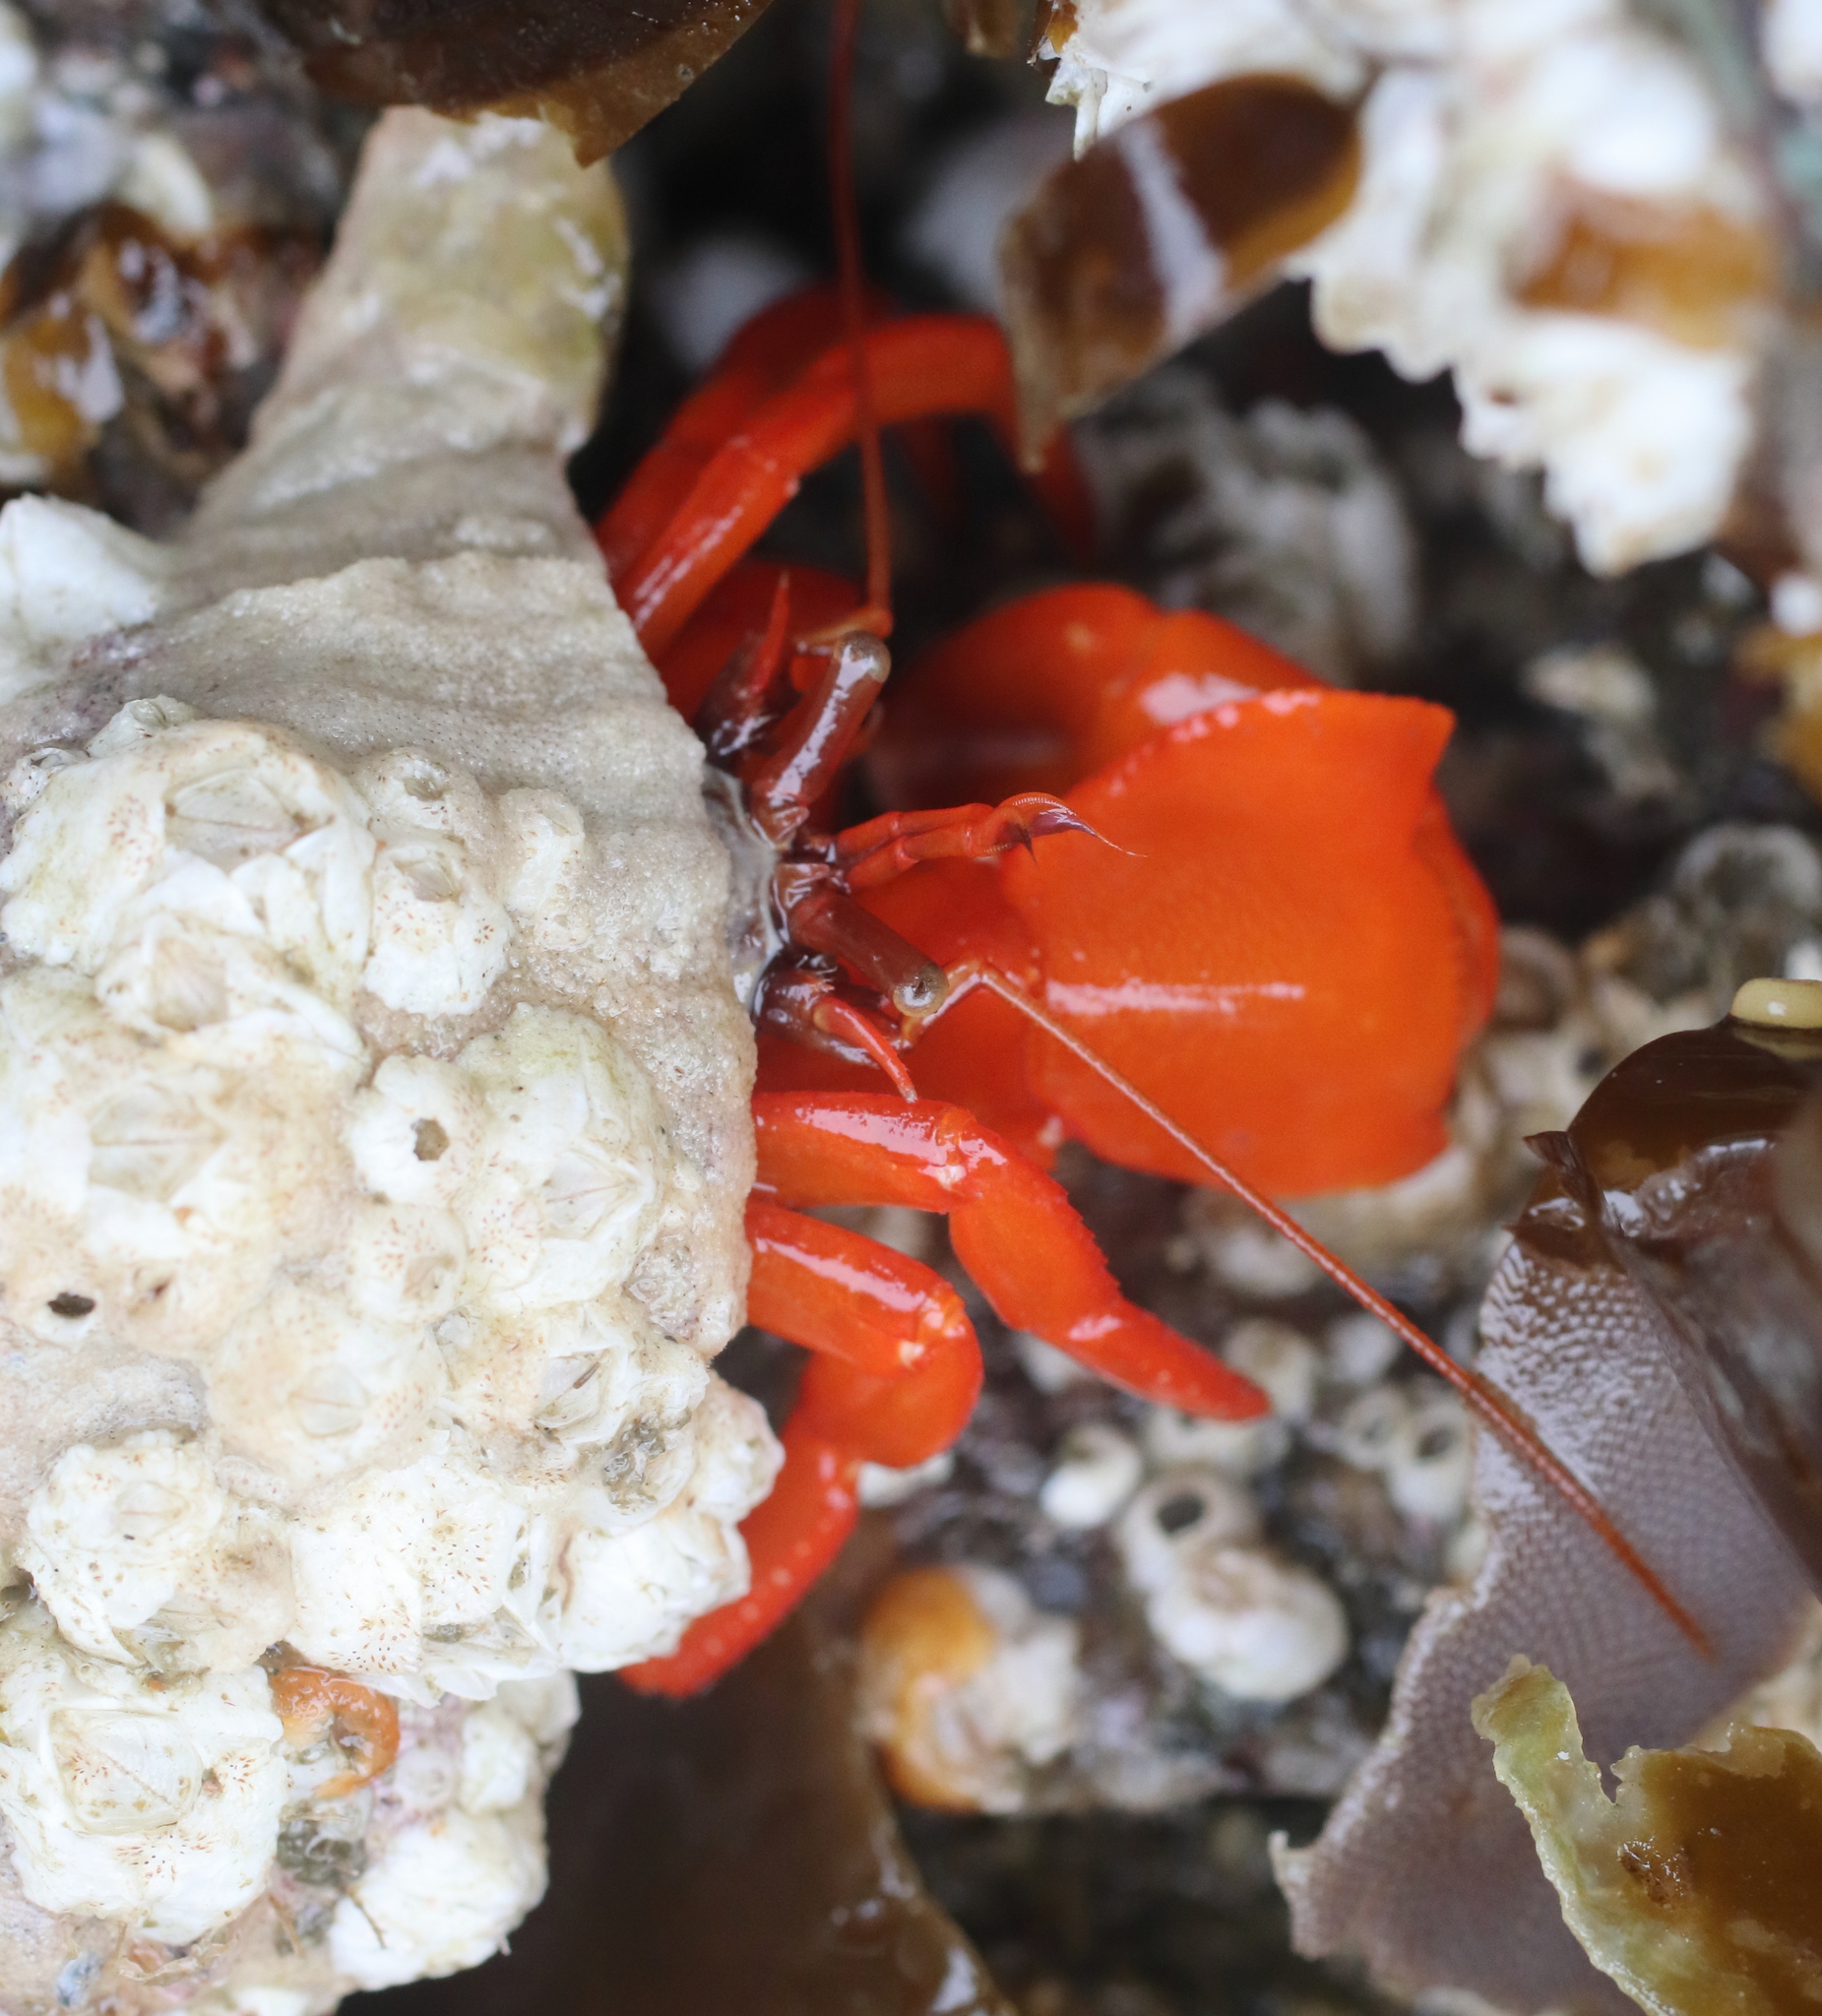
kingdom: Animalia
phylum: Arthropoda
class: Malacostraca
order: Decapoda
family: Paguridae
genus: Elassochirus
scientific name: Elassochirus gilli
